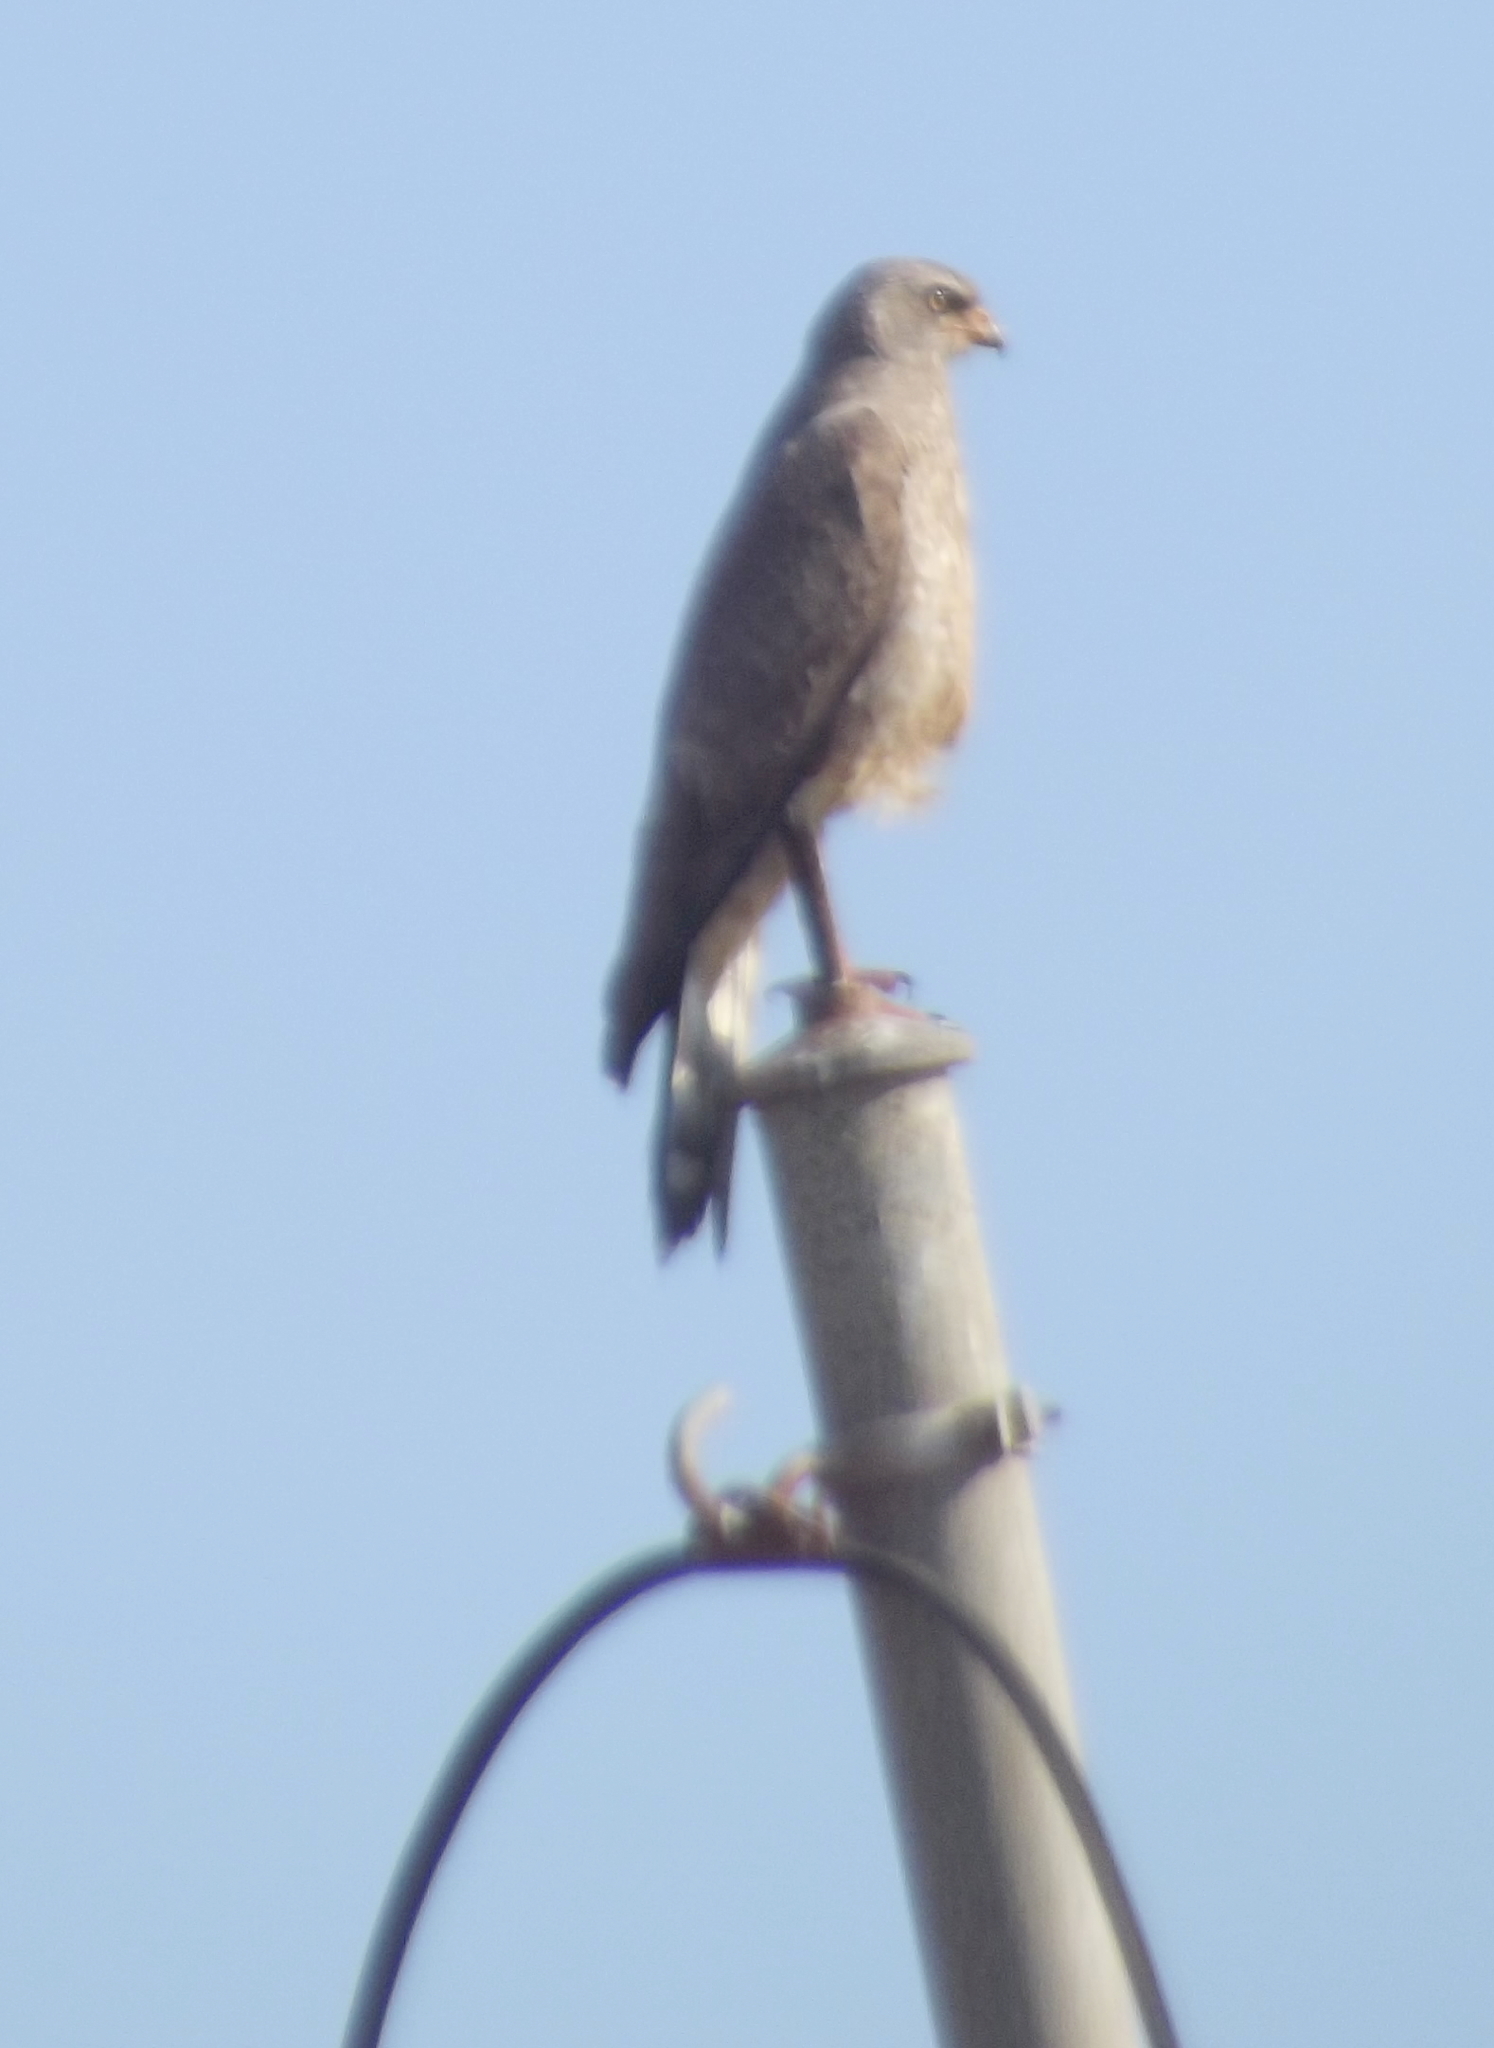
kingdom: Animalia
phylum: Chordata
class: Aves
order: Accipitriformes
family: Accipitridae
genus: Melierax
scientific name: Melierax canorus
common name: Pale chanting-goshawk
